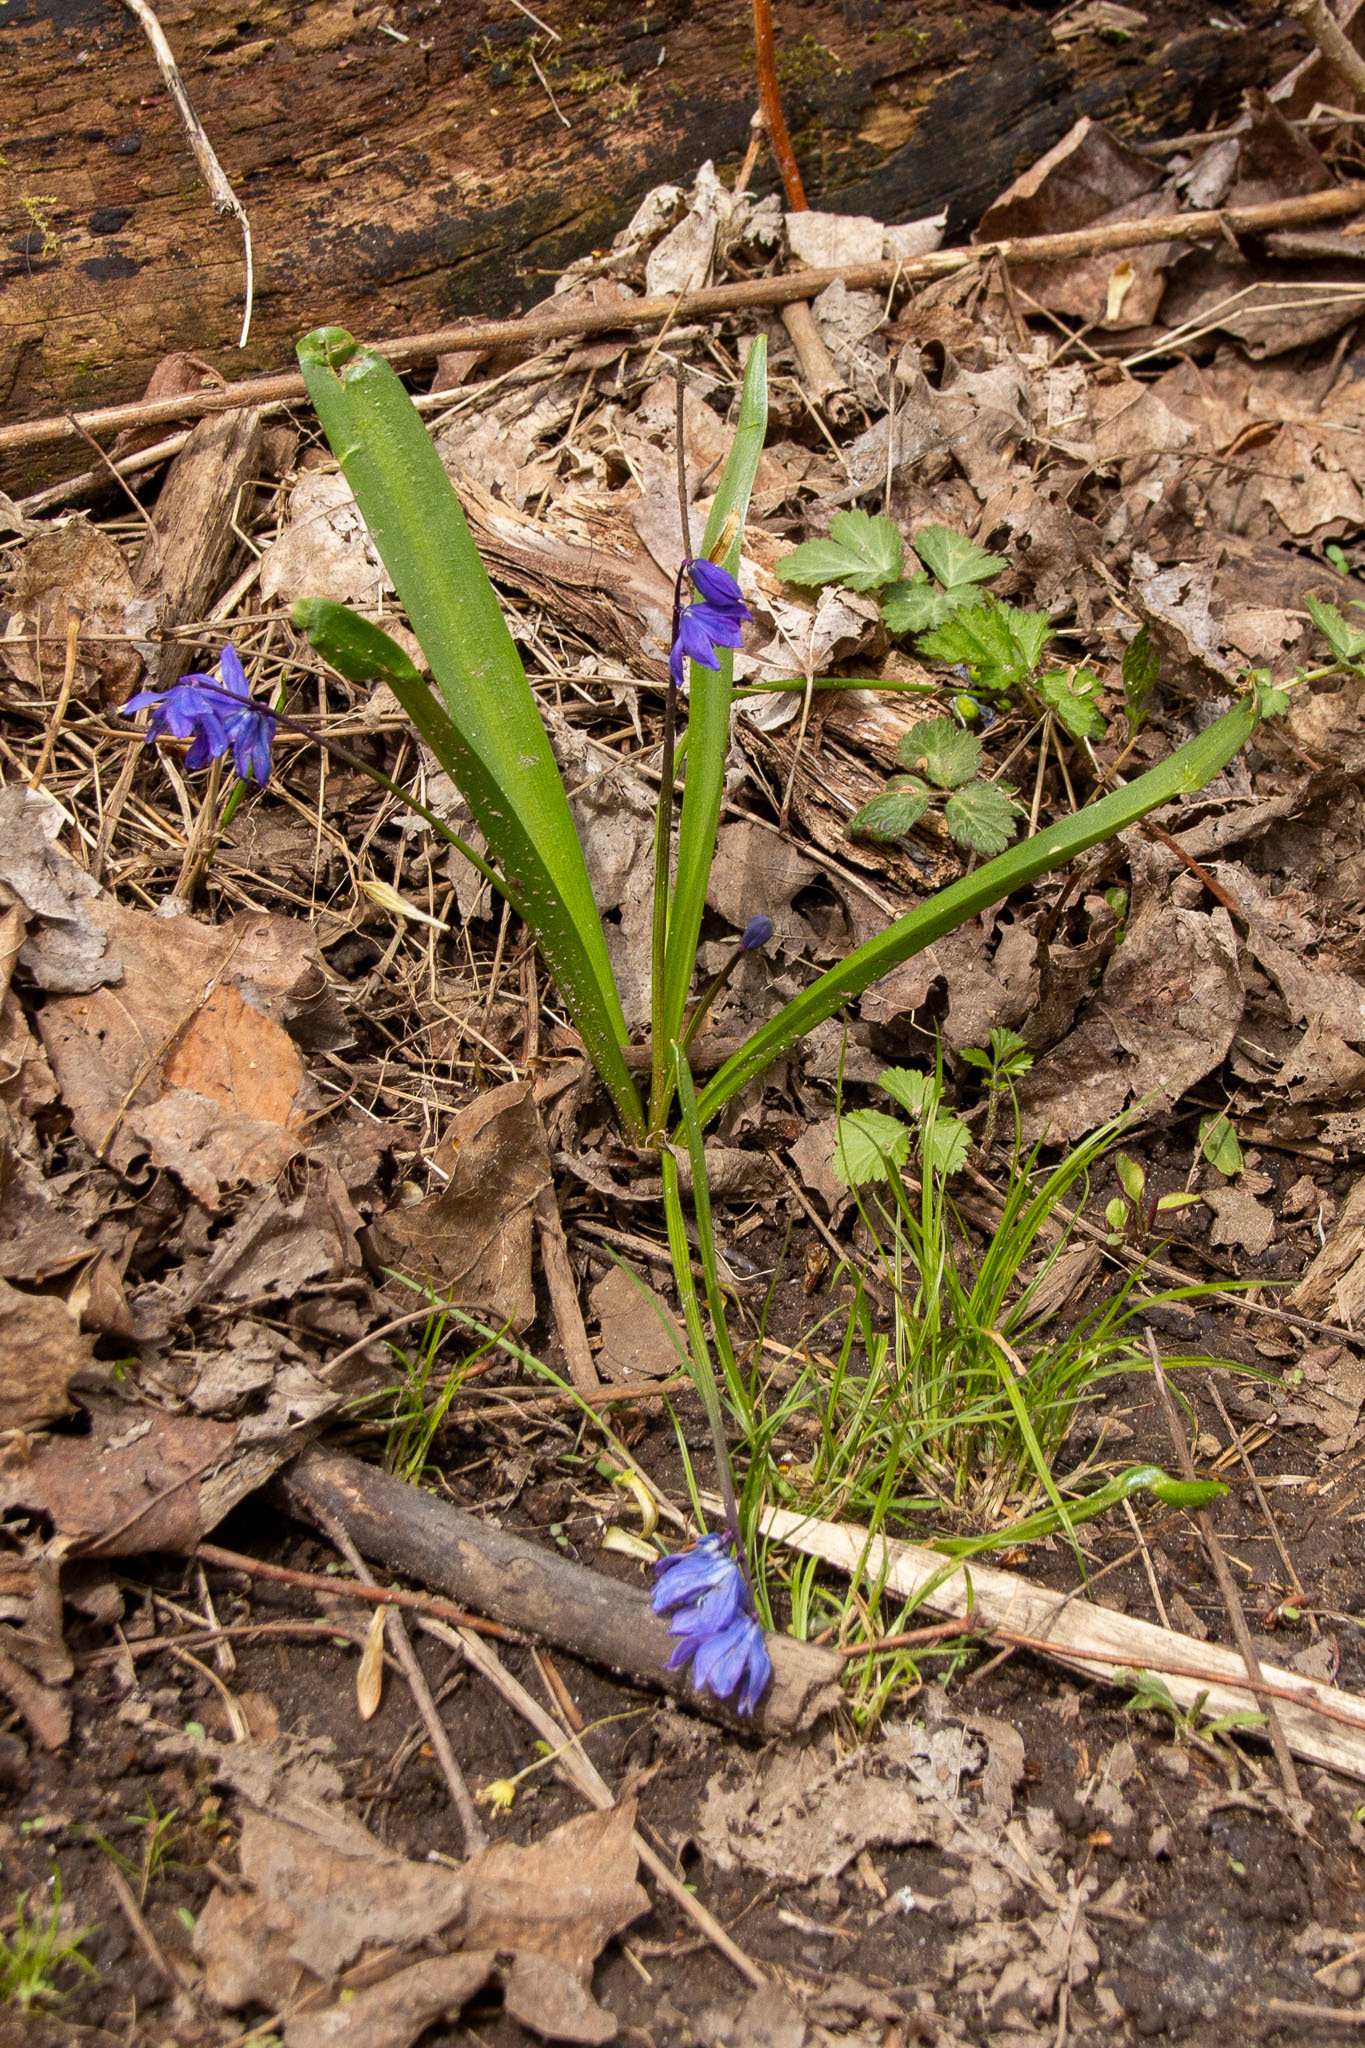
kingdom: Plantae
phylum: Tracheophyta
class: Liliopsida
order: Asparagales
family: Asparagaceae
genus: Scilla
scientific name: Scilla siberica
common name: Siberian squill
